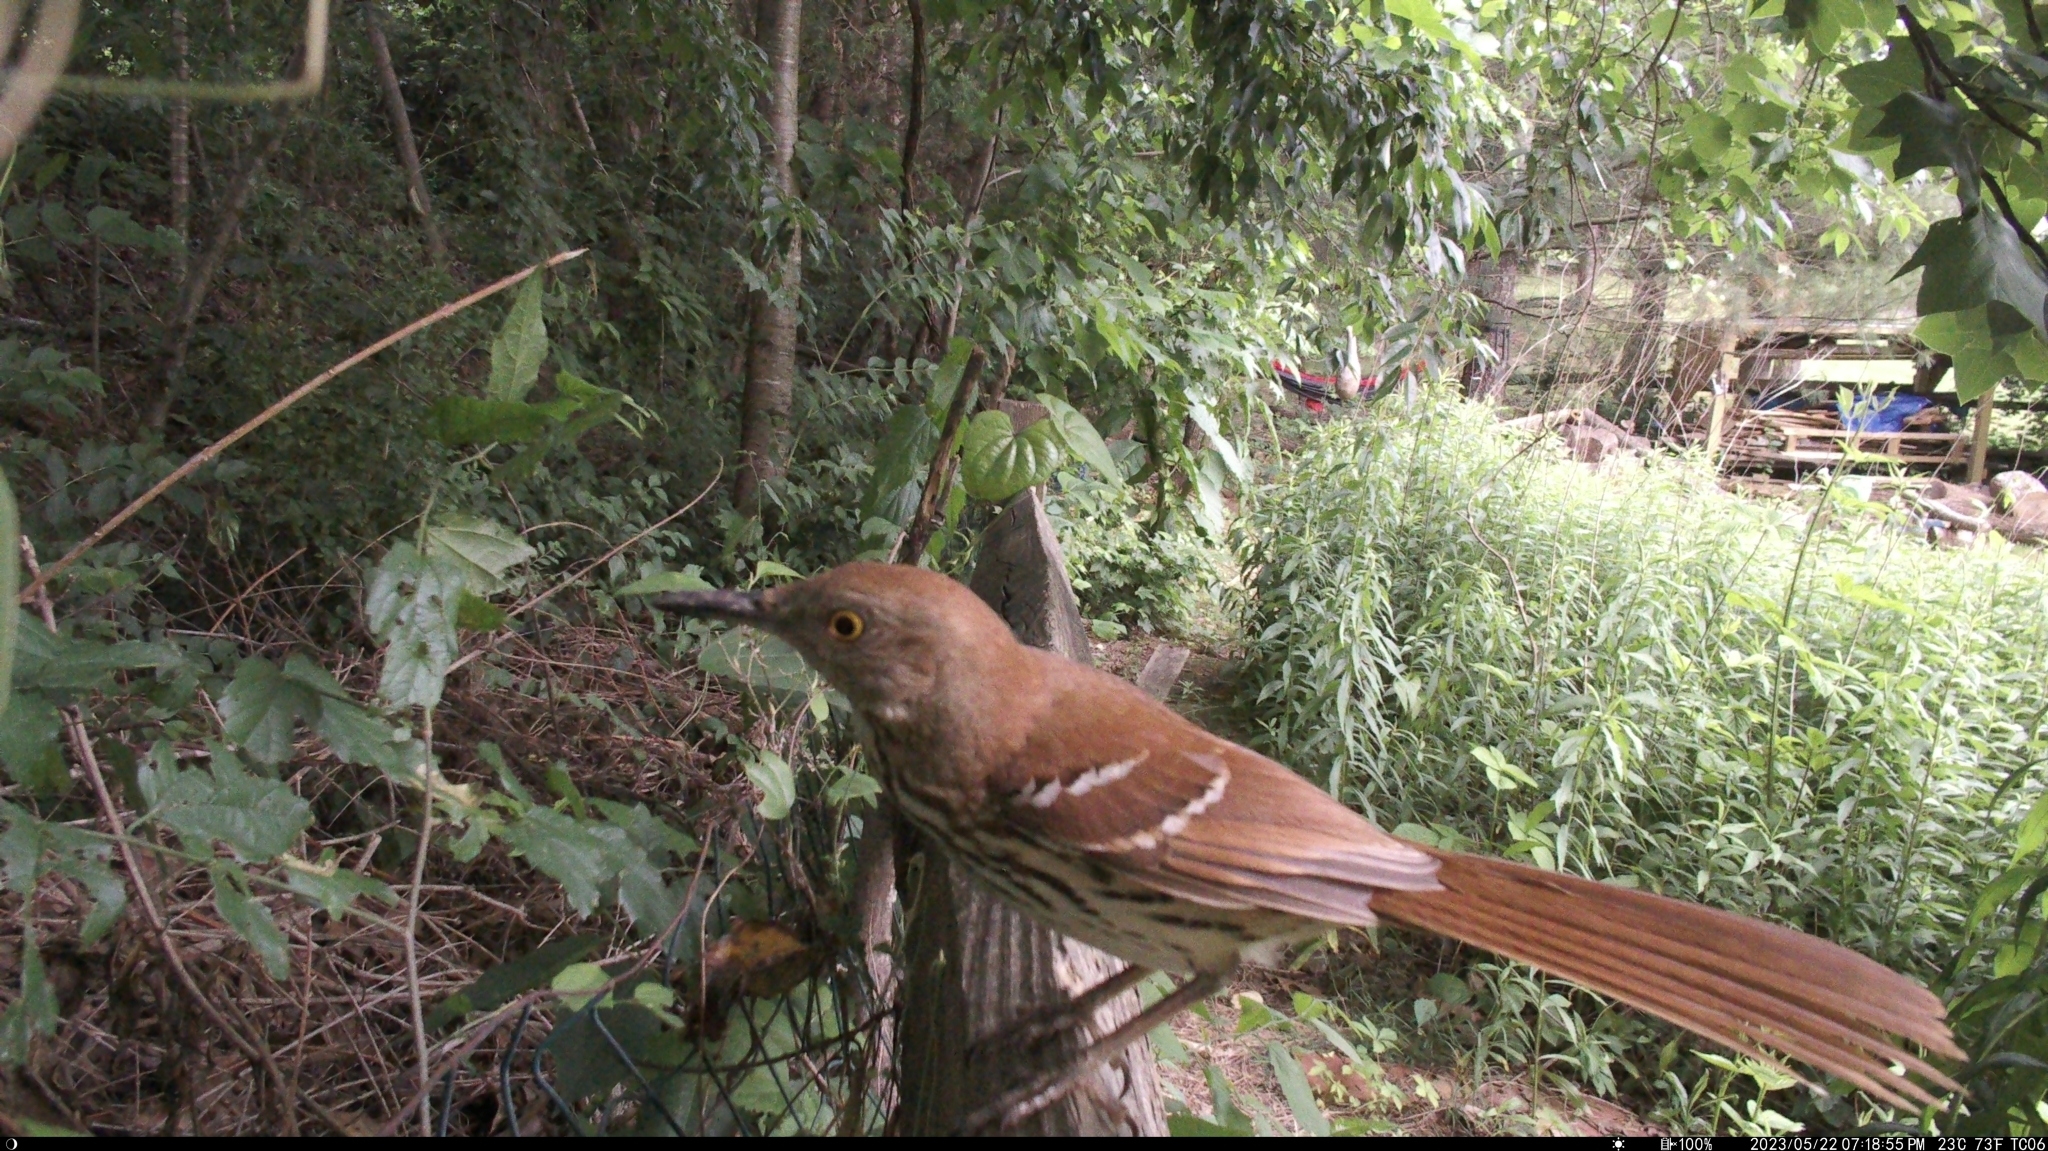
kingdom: Animalia
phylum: Chordata
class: Aves
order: Passeriformes
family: Mimidae
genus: Toxostoma
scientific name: Toxostoma rufum
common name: Brown thrasher
